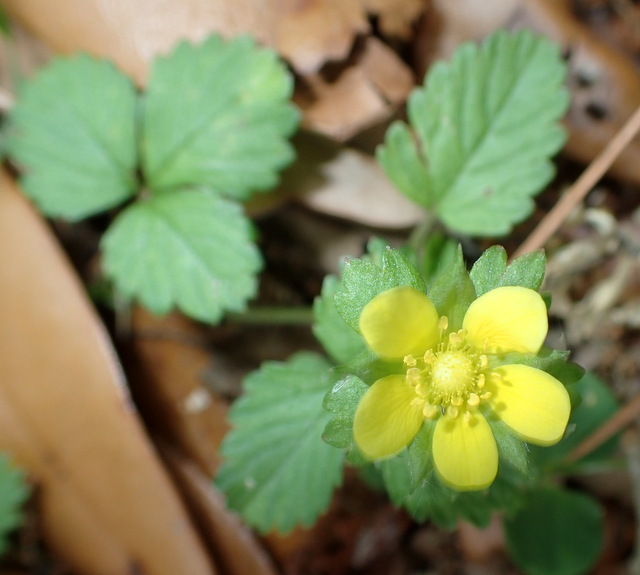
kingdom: Plantae
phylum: Tracheophyta
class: Magnoliopsida
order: Rosales
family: Rosaceae
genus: Potentilla
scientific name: Potentilla indica
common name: Yellow-flowered strawberry
